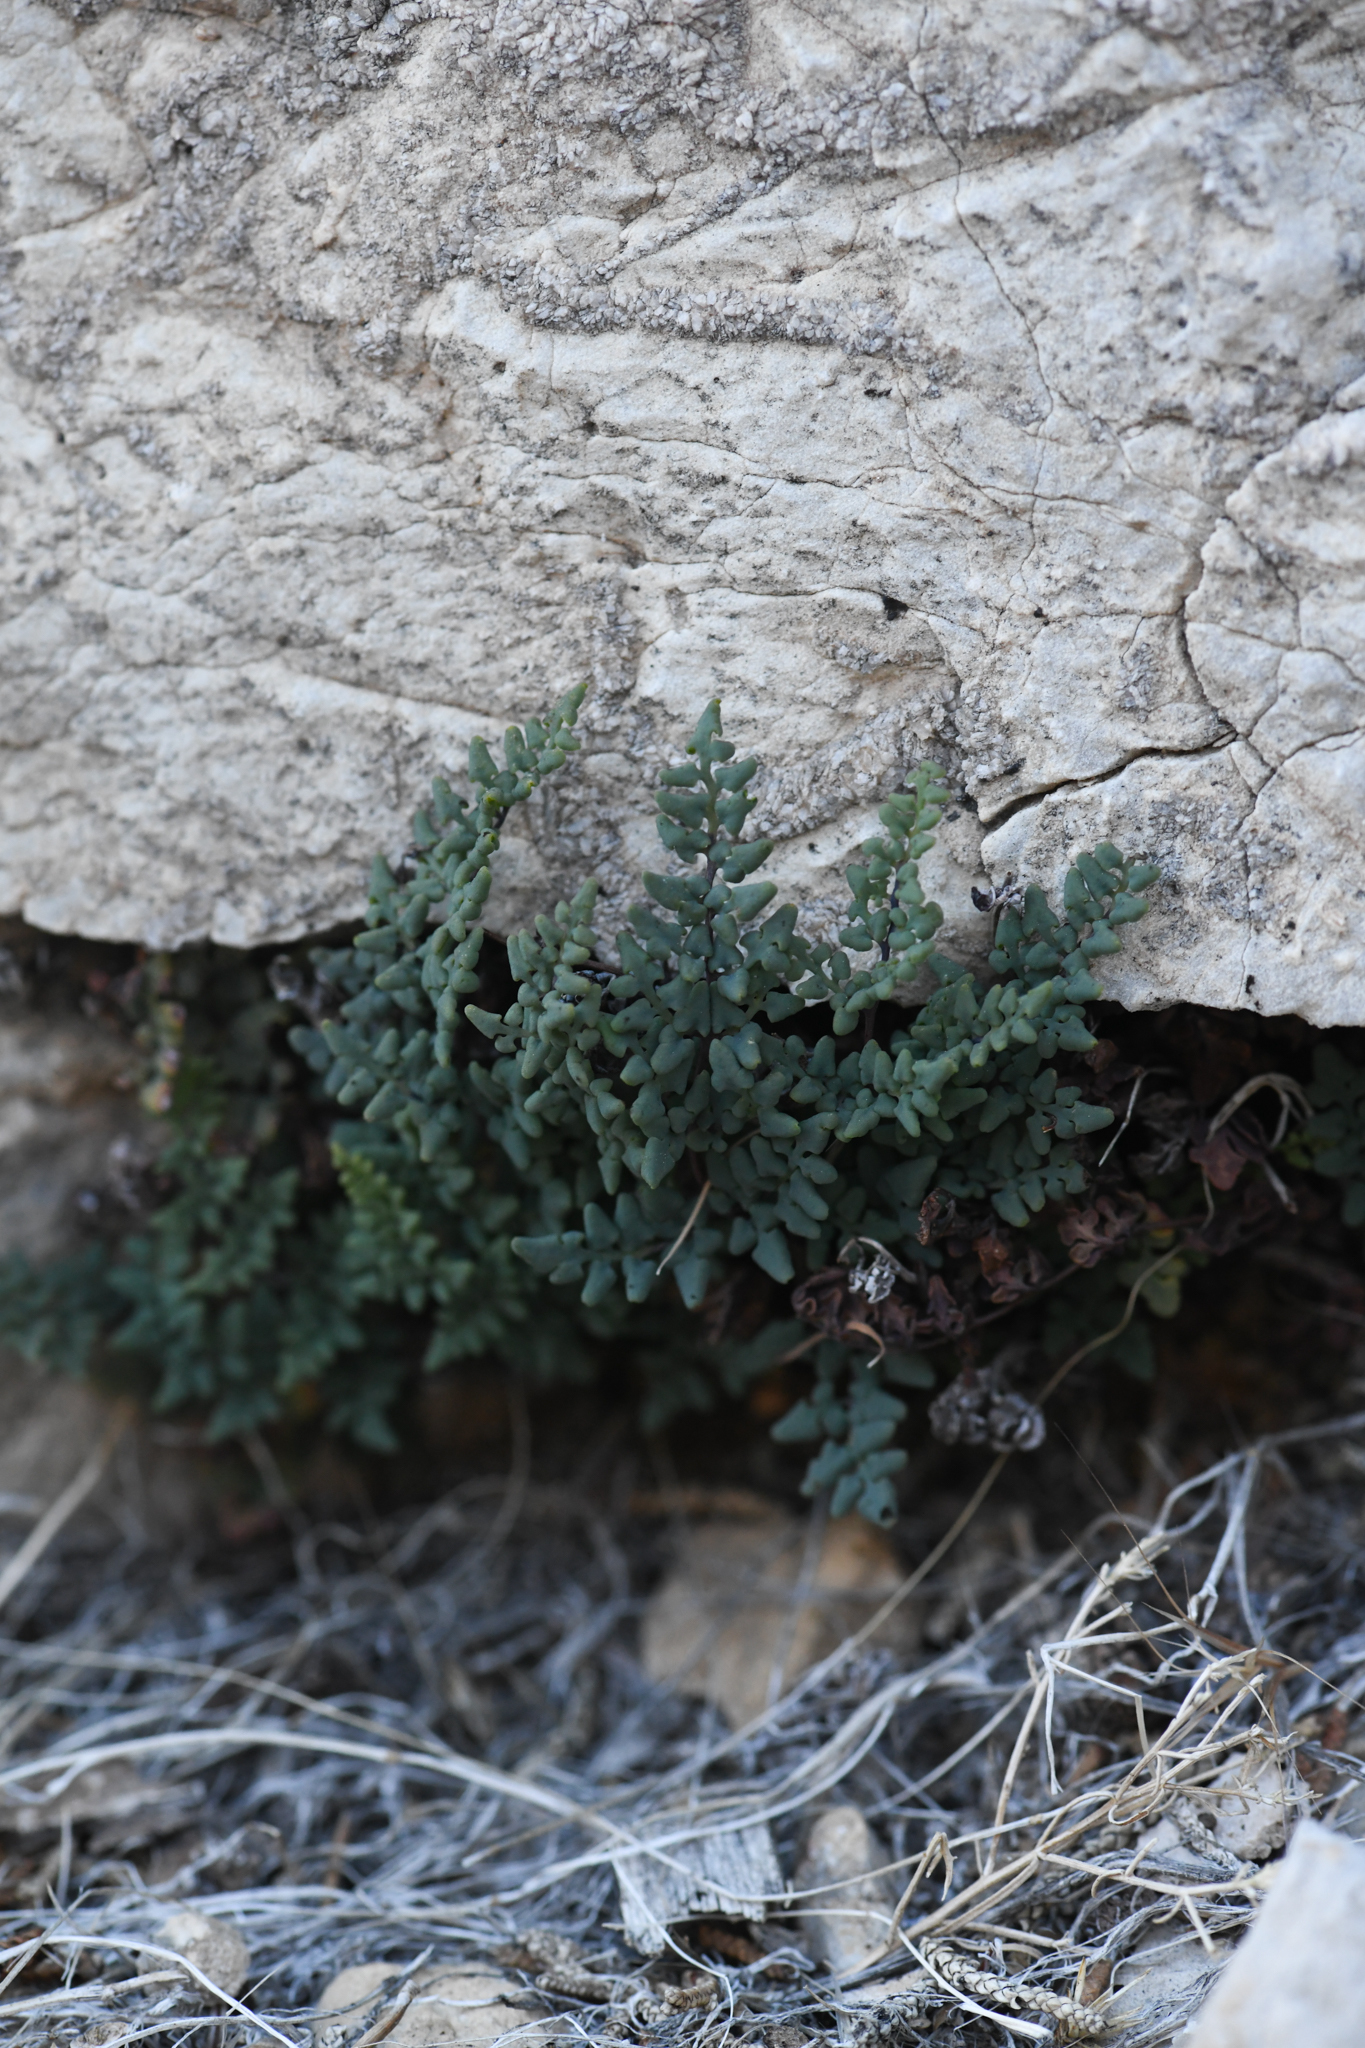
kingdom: Plantae
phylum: Tracheophyta
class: Polypodiopsida
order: Polypodiales
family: Pteridaceae
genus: Argyrochosma
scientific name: Argyrochosma jonesii
